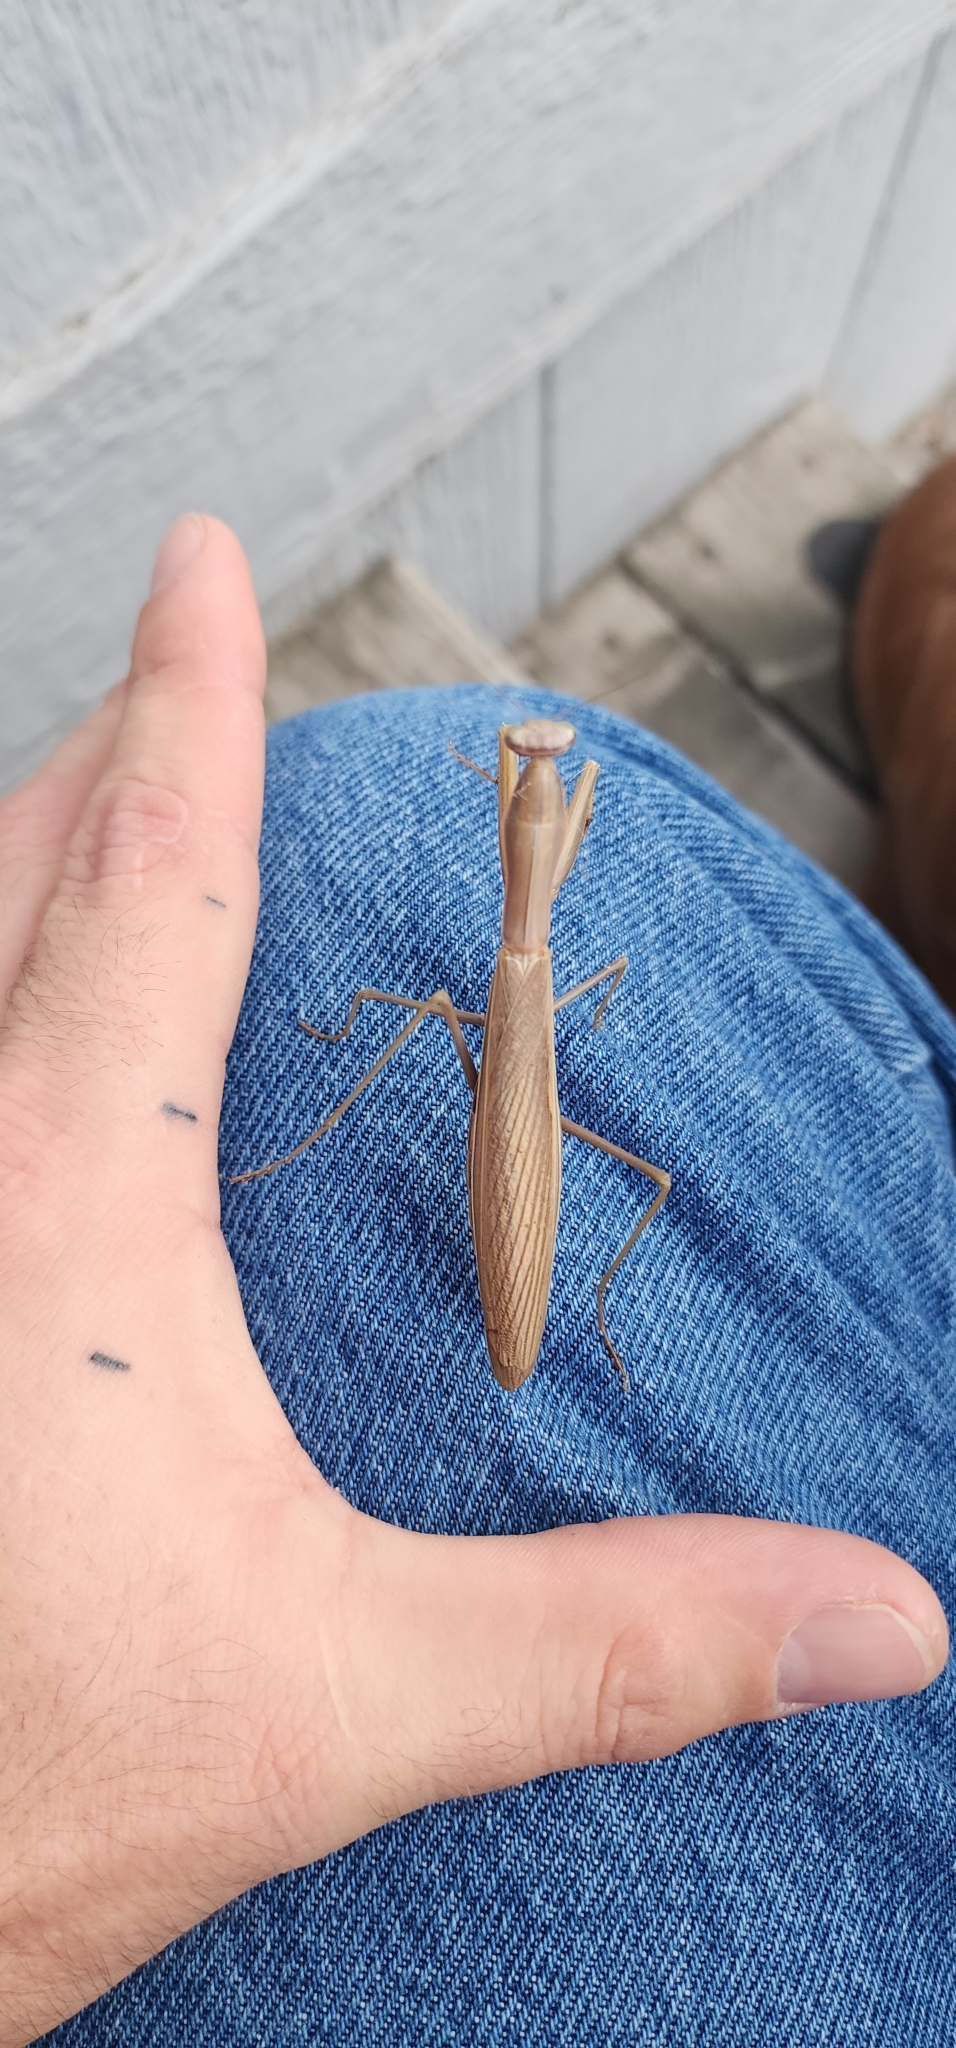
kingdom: Animalia
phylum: Arthropoda
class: Insecta
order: Mantodea
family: Mantidae
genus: Mantis
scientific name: Mantis religiosa
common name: Praying mantis
